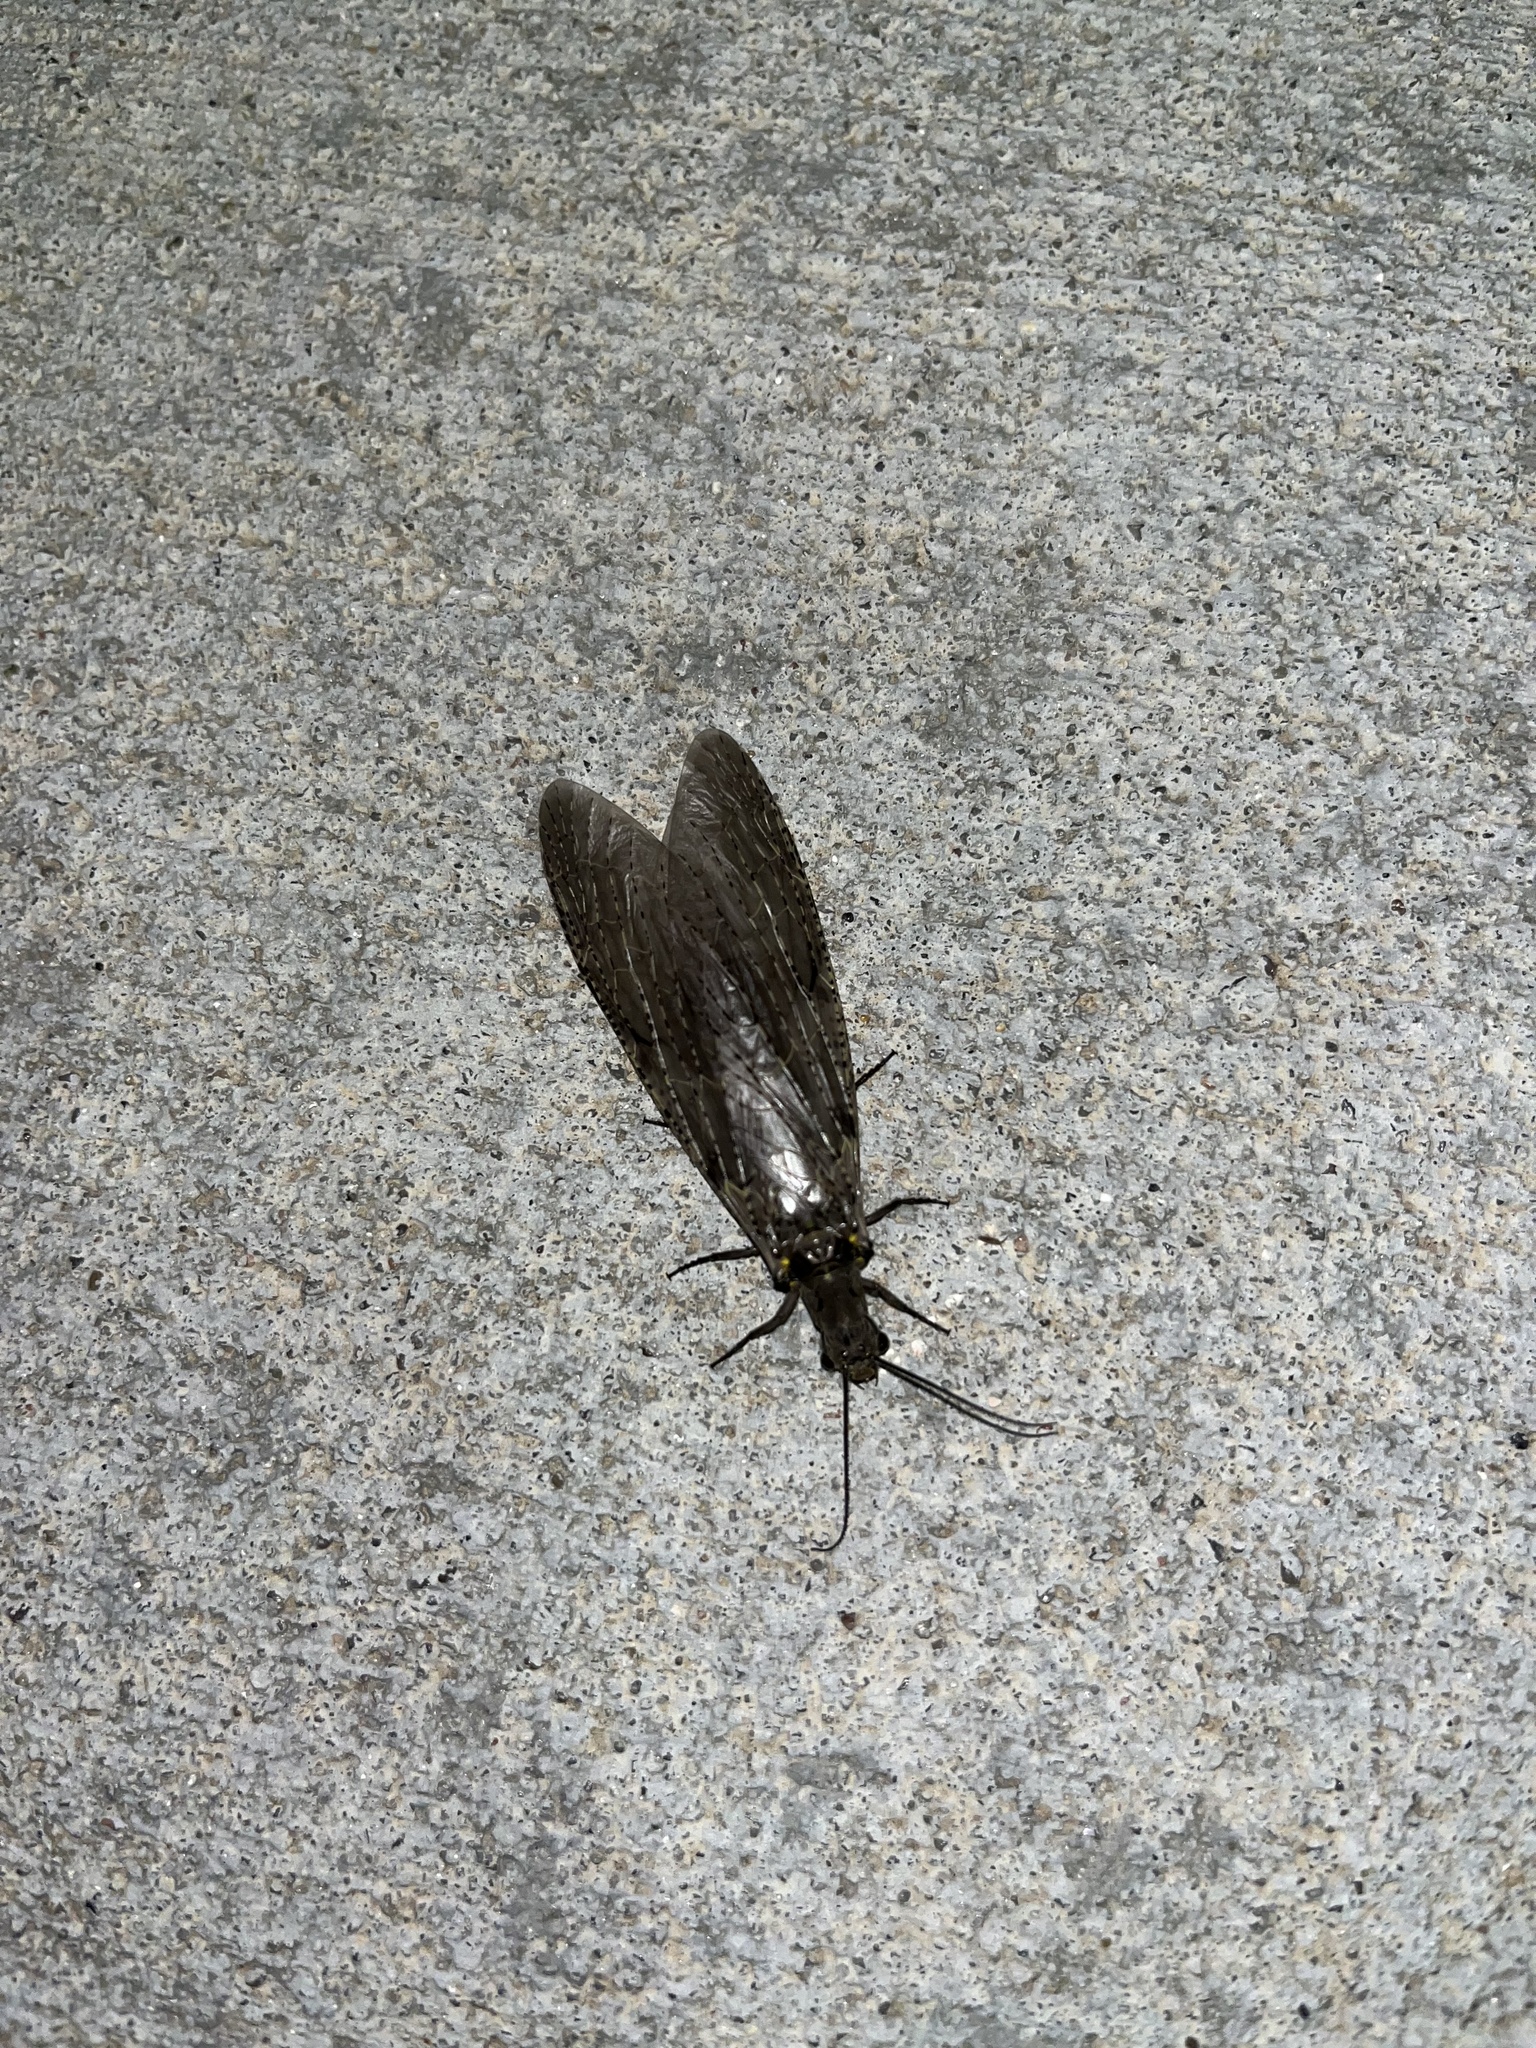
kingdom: Animalia
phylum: Arthropoda
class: Insecta
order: Megaloptera
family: Corydalidae
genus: Chauliodes
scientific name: Chauliodes rastricornis
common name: Spring fishfly
